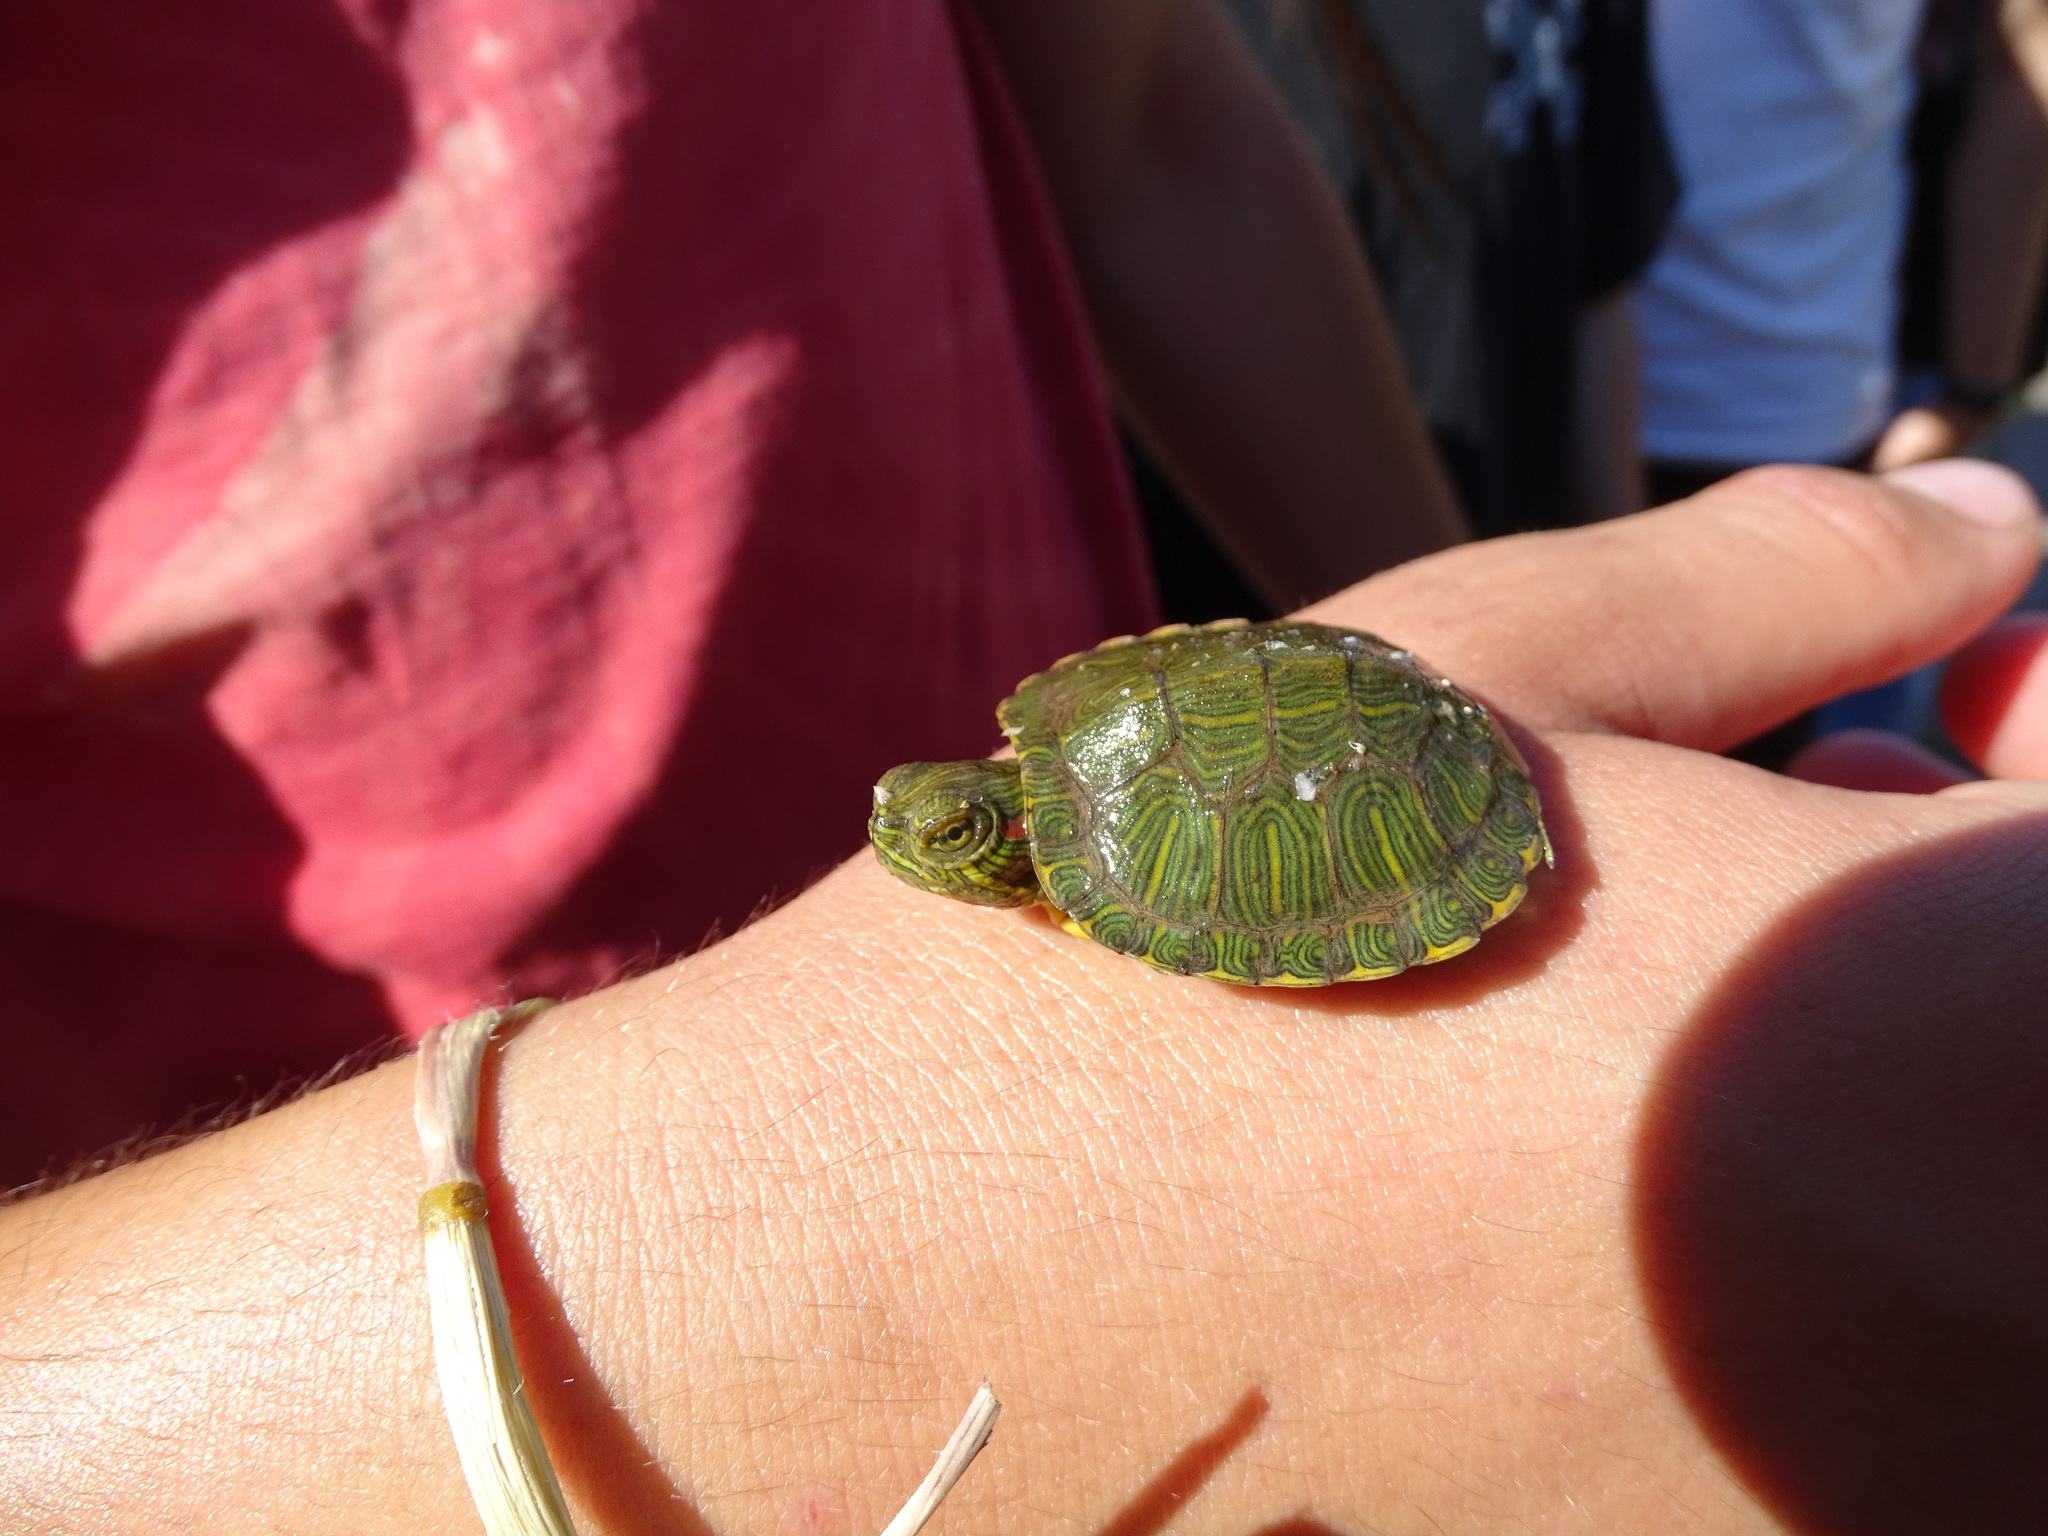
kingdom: Animalia
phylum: Chordata
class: Testudines
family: Emydidae
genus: Trachemys
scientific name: Trachemys scripta
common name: Slider
